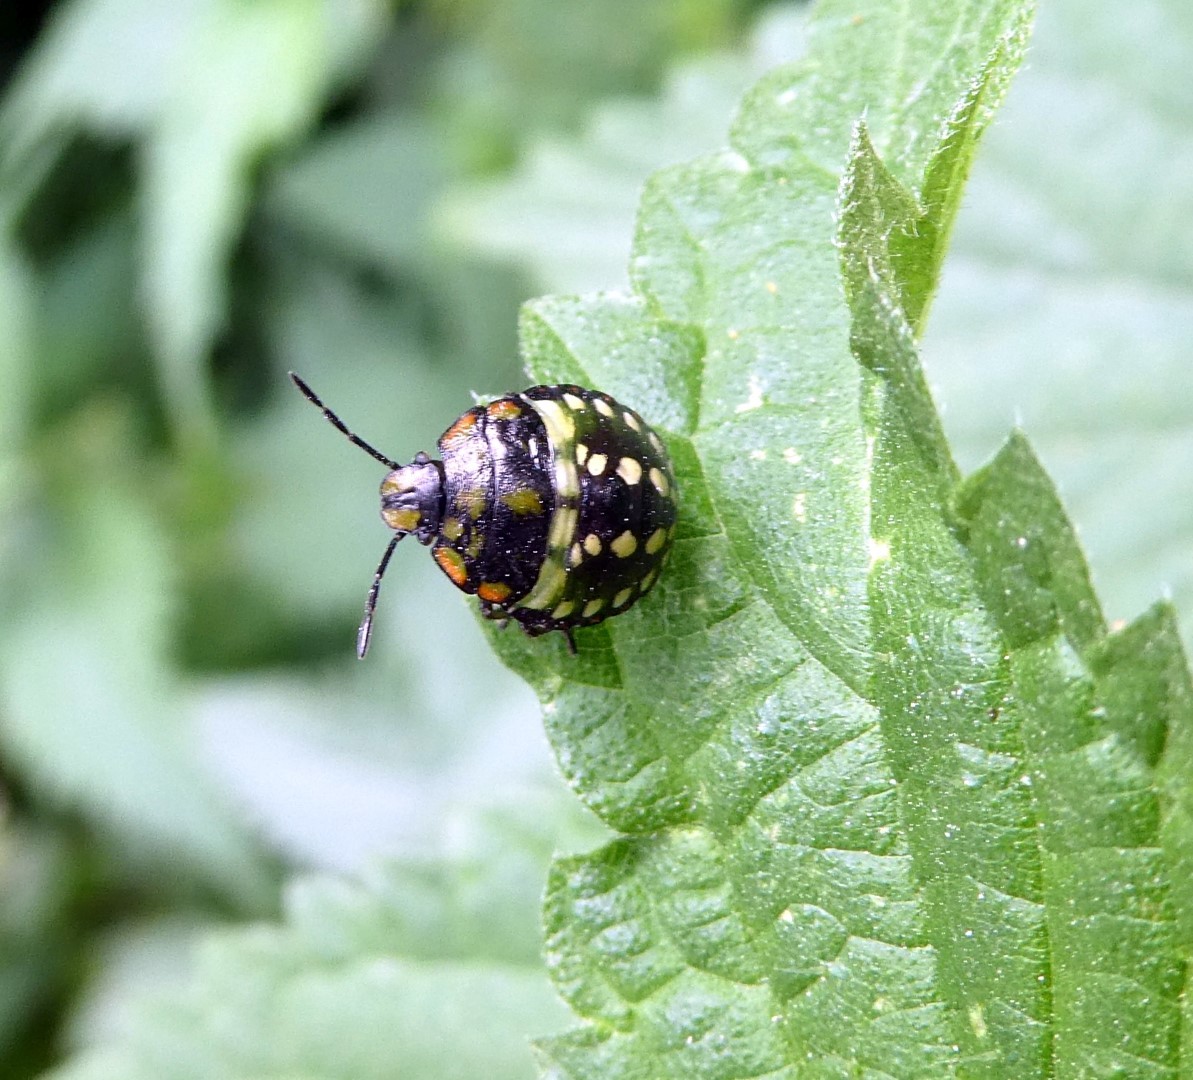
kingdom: Animalia
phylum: Arthropoda
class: Insecta
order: Hemiptera
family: Pentatomidae
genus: Nezara
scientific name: Nezara viridula
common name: Southern green stink bug
